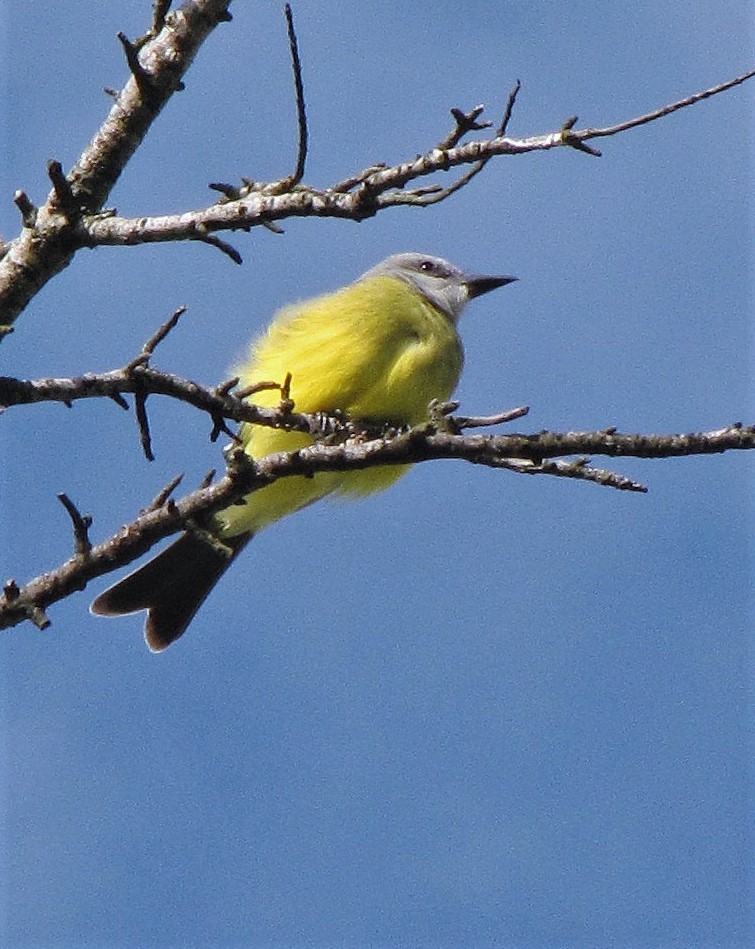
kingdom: Animalia
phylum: Chordata
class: Aves
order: Passeriformes
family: Tyrannidae
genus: Tyrannus
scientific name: Tyrannus melancholicus
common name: Tropical kingbird
